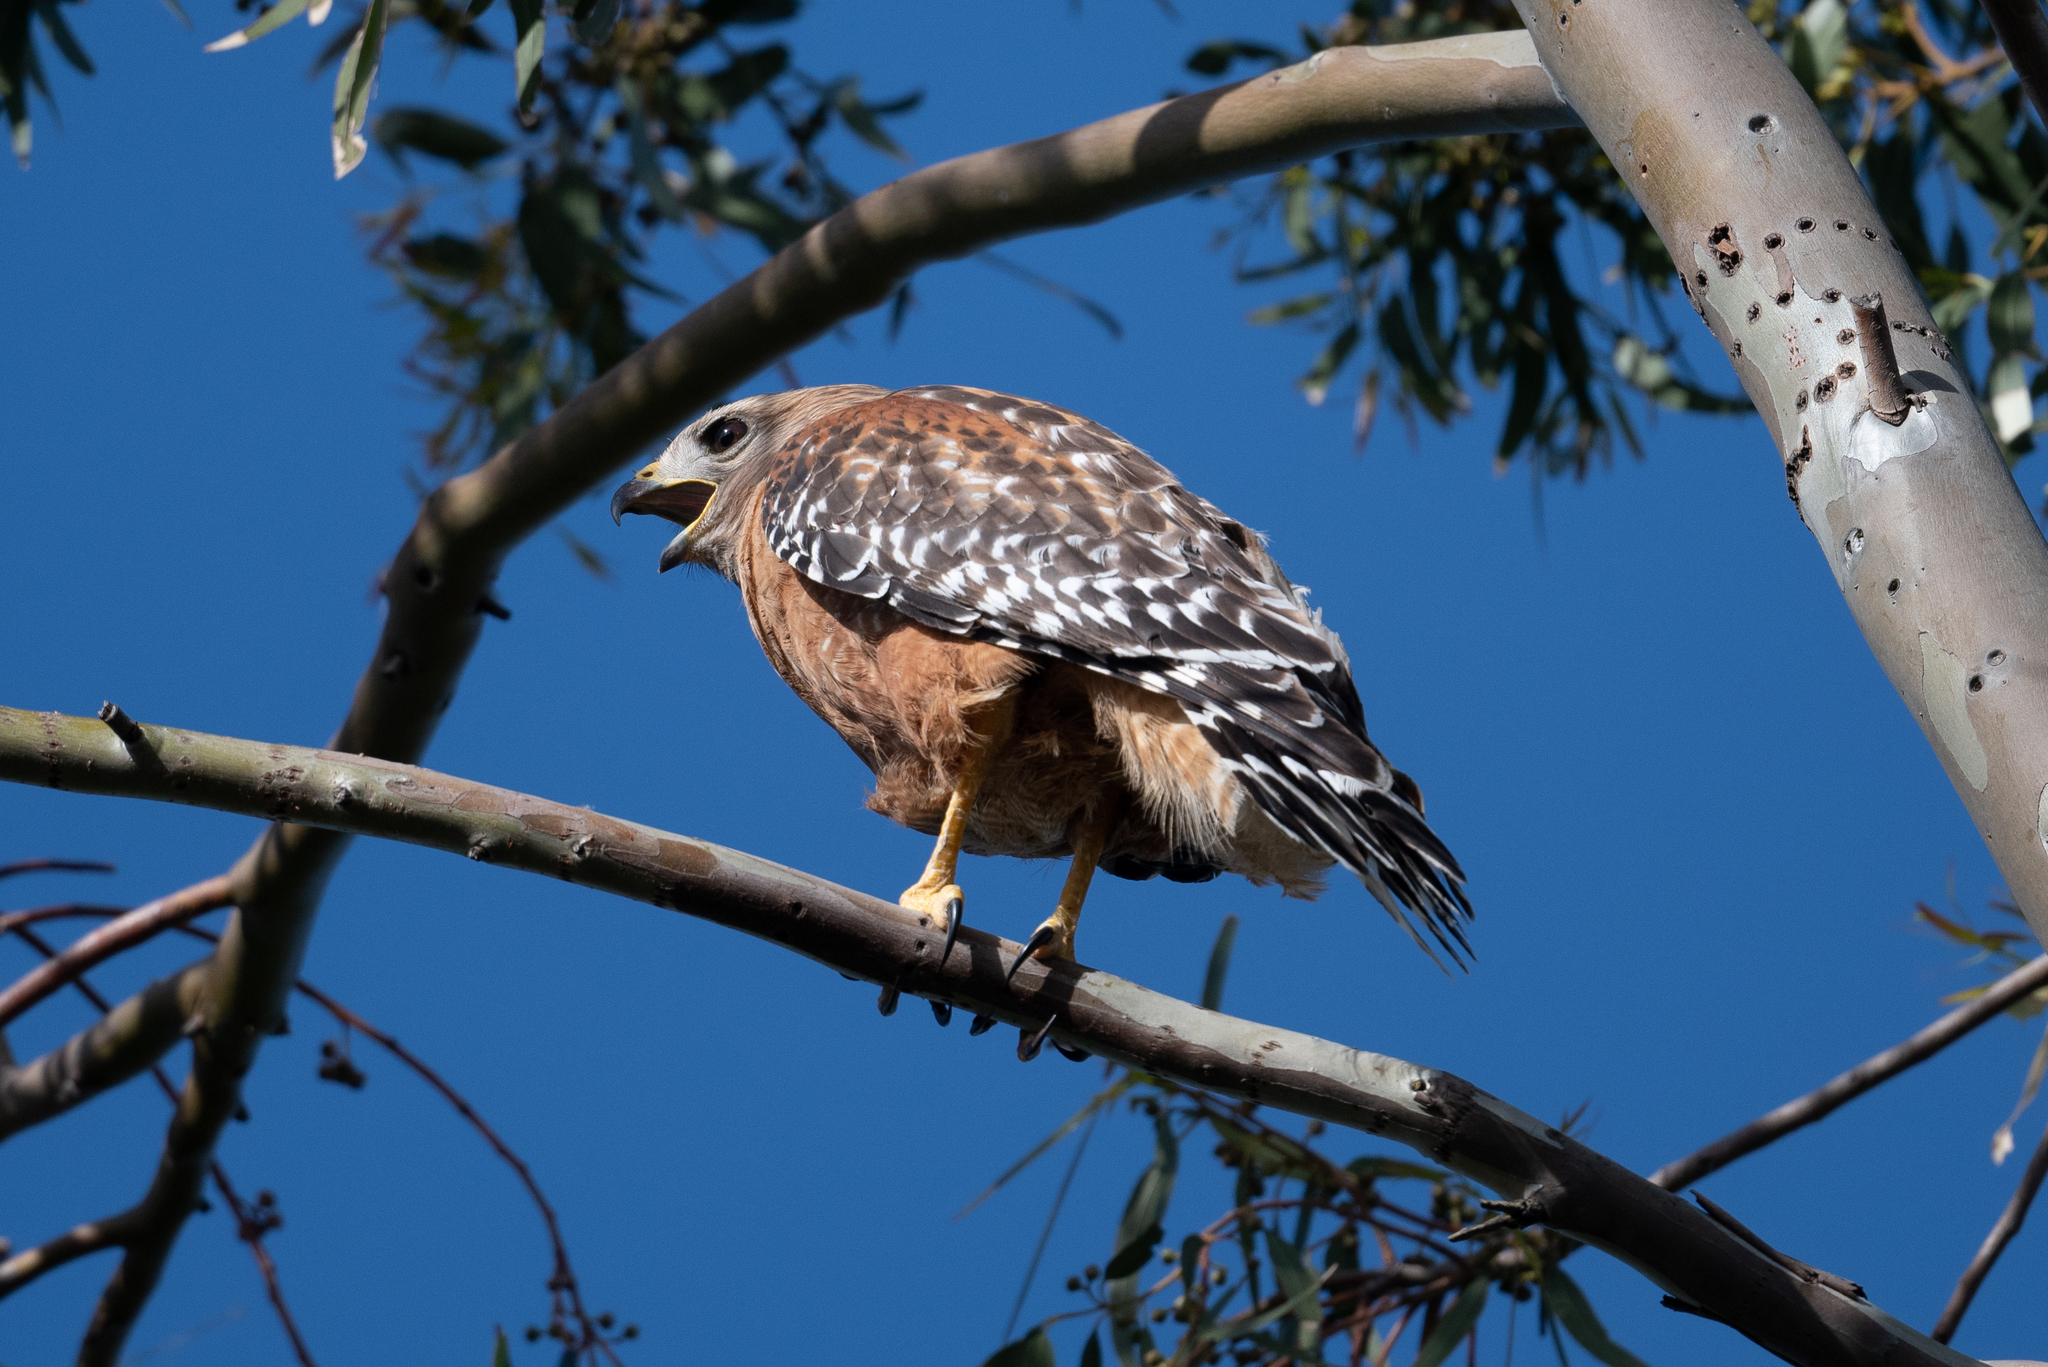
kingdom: Animalia
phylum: Chordata
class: Aves
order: Accipitriformes
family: Accipitridae
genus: Buteo
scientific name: Buteo lineatus
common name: Red-shouldered hawk
